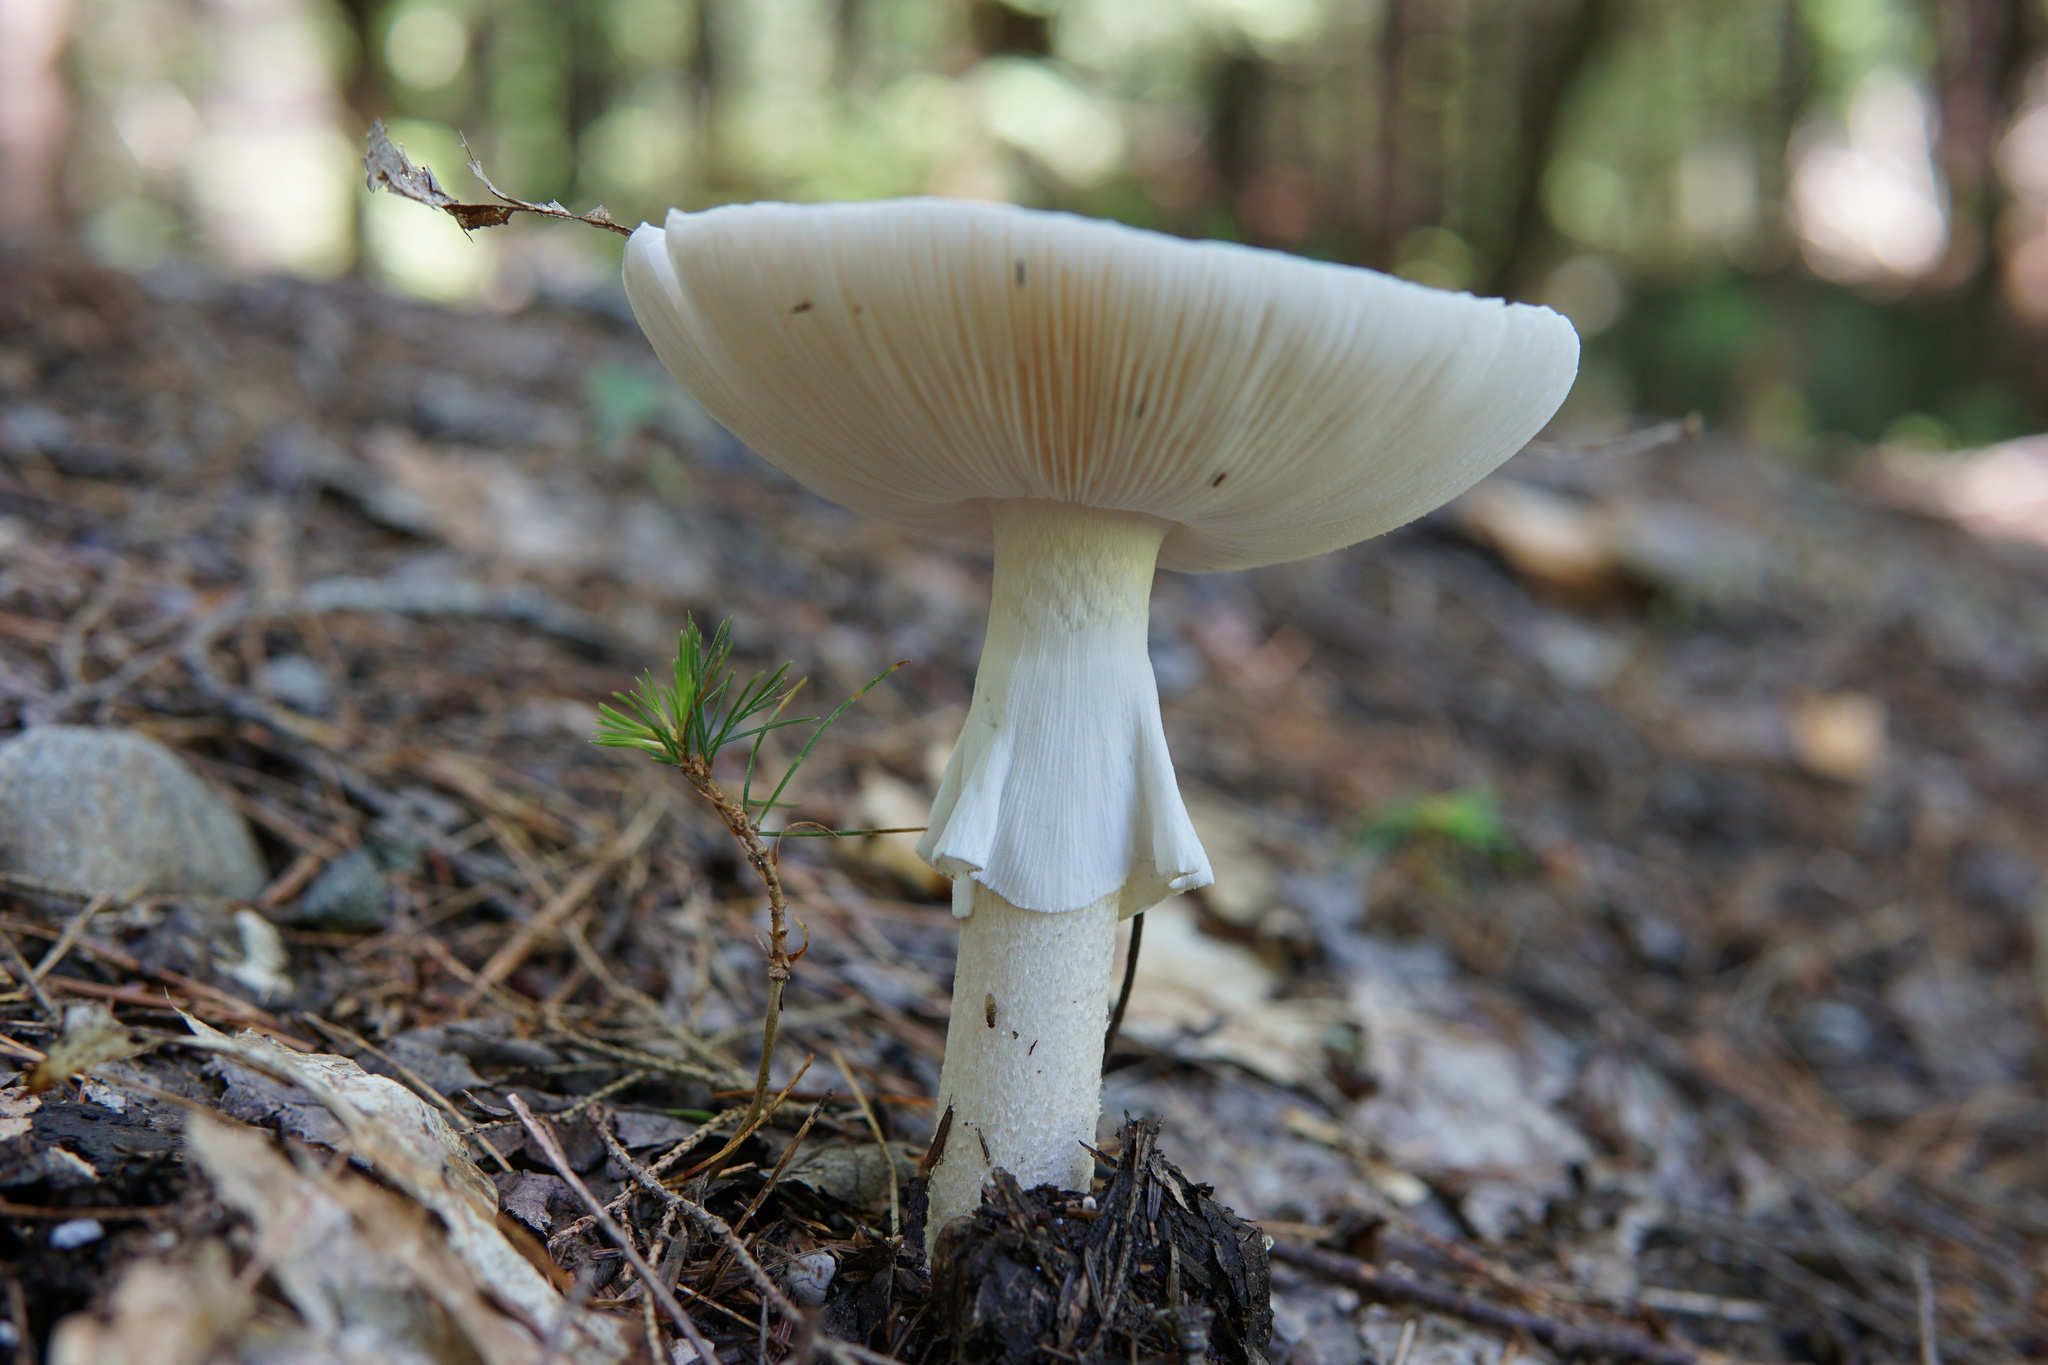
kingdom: Fungi
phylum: Basidiomycota
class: Agaricomycetes
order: Agaricales
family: Amanitaceae
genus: Amanita
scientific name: Amanita submaculata
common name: Ball gown amanita
